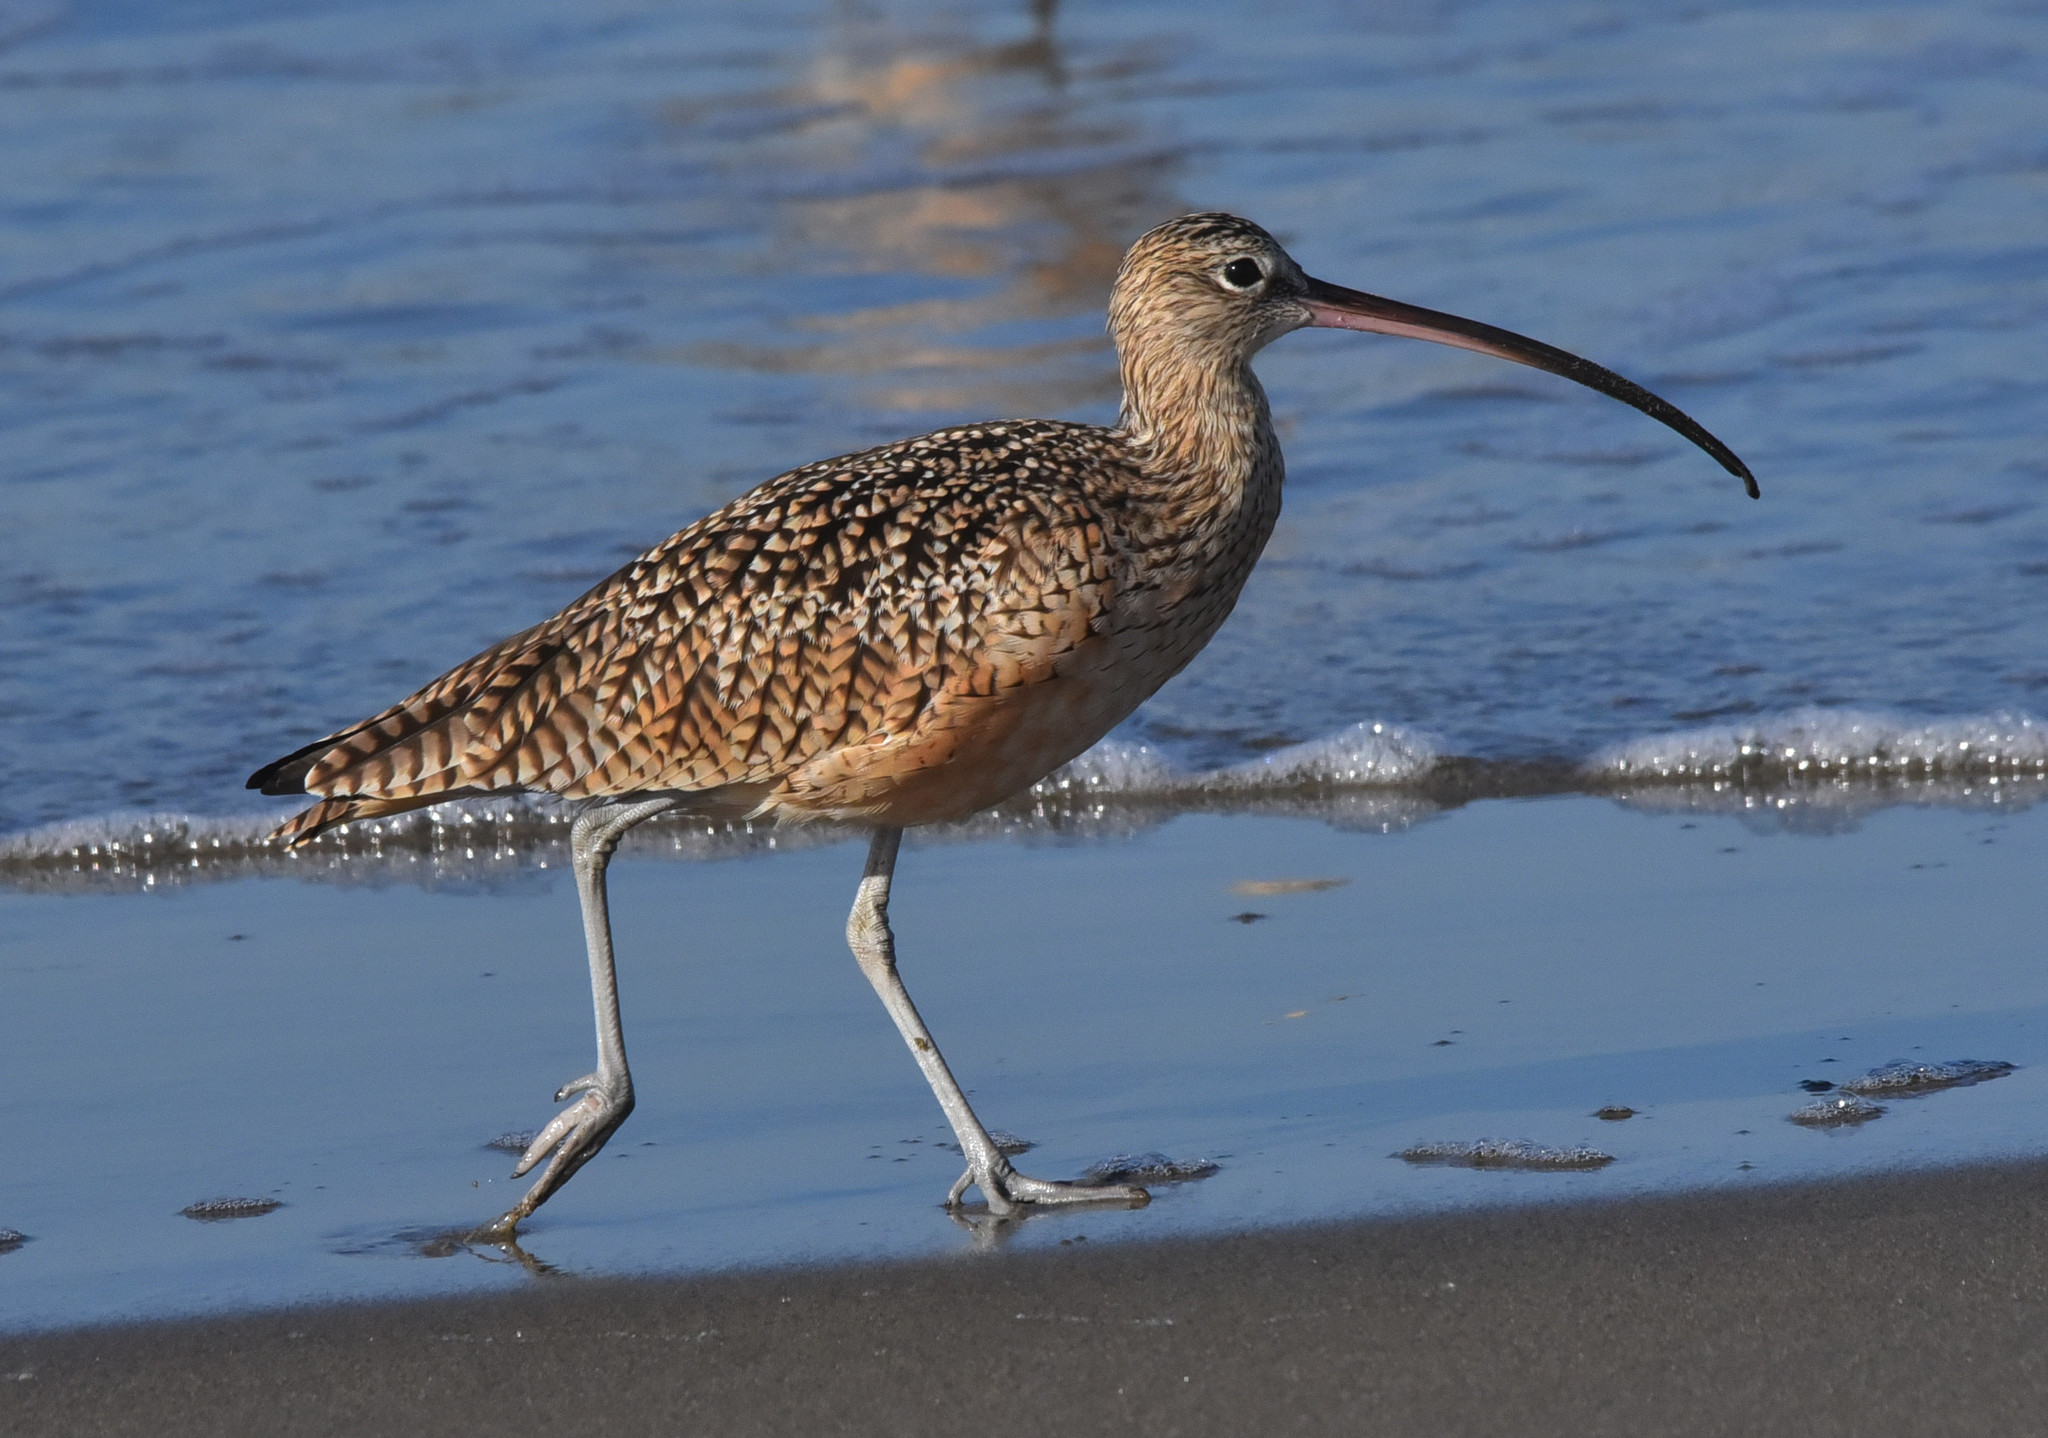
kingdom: Animalia
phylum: Chordata
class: Aves
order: Charadriiformes
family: Scolopacidae
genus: Numenius
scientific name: Numenius americanus
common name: Long-billed curlew
